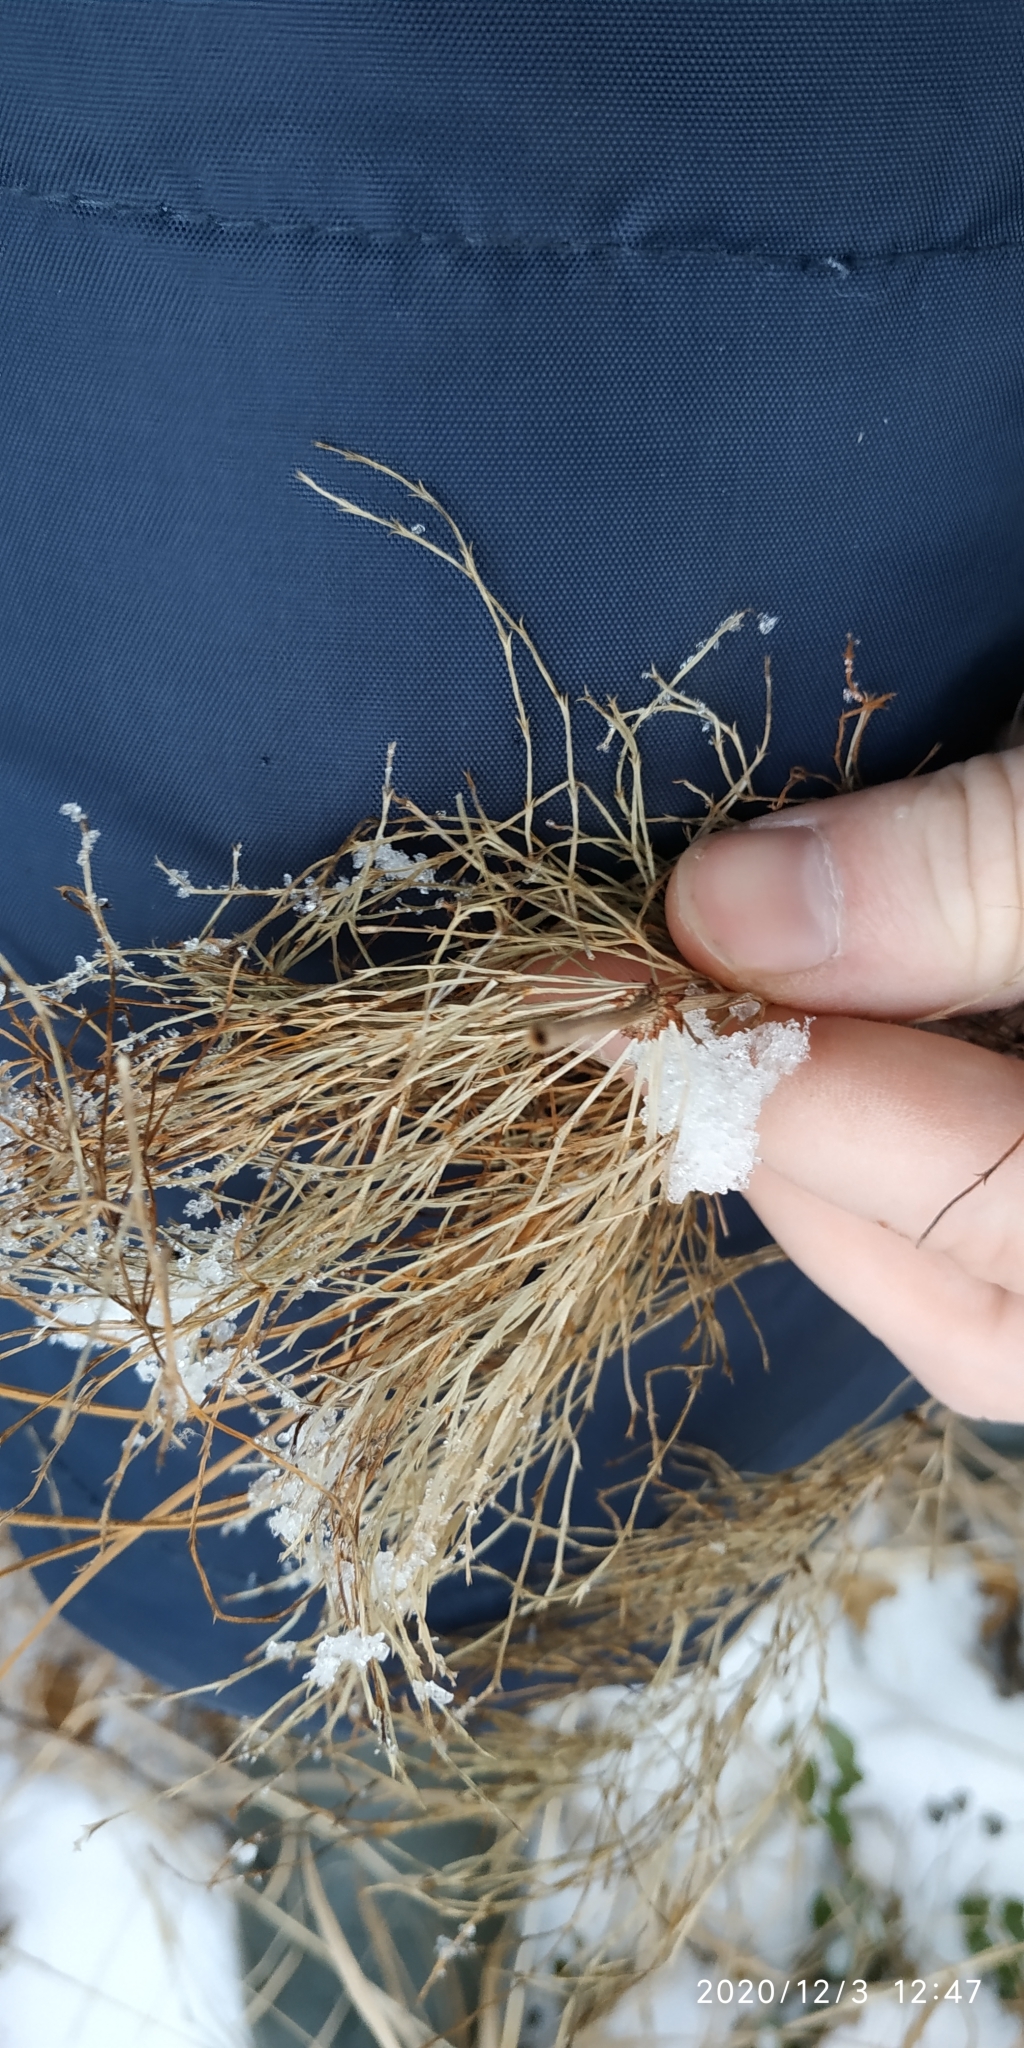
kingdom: Plantae
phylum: Tracheophyta
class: Polypodiopsida
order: Equisetales
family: Equisetaceae
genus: Equisetum
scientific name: Equisetum sylvaticum
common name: Wood horsetail
